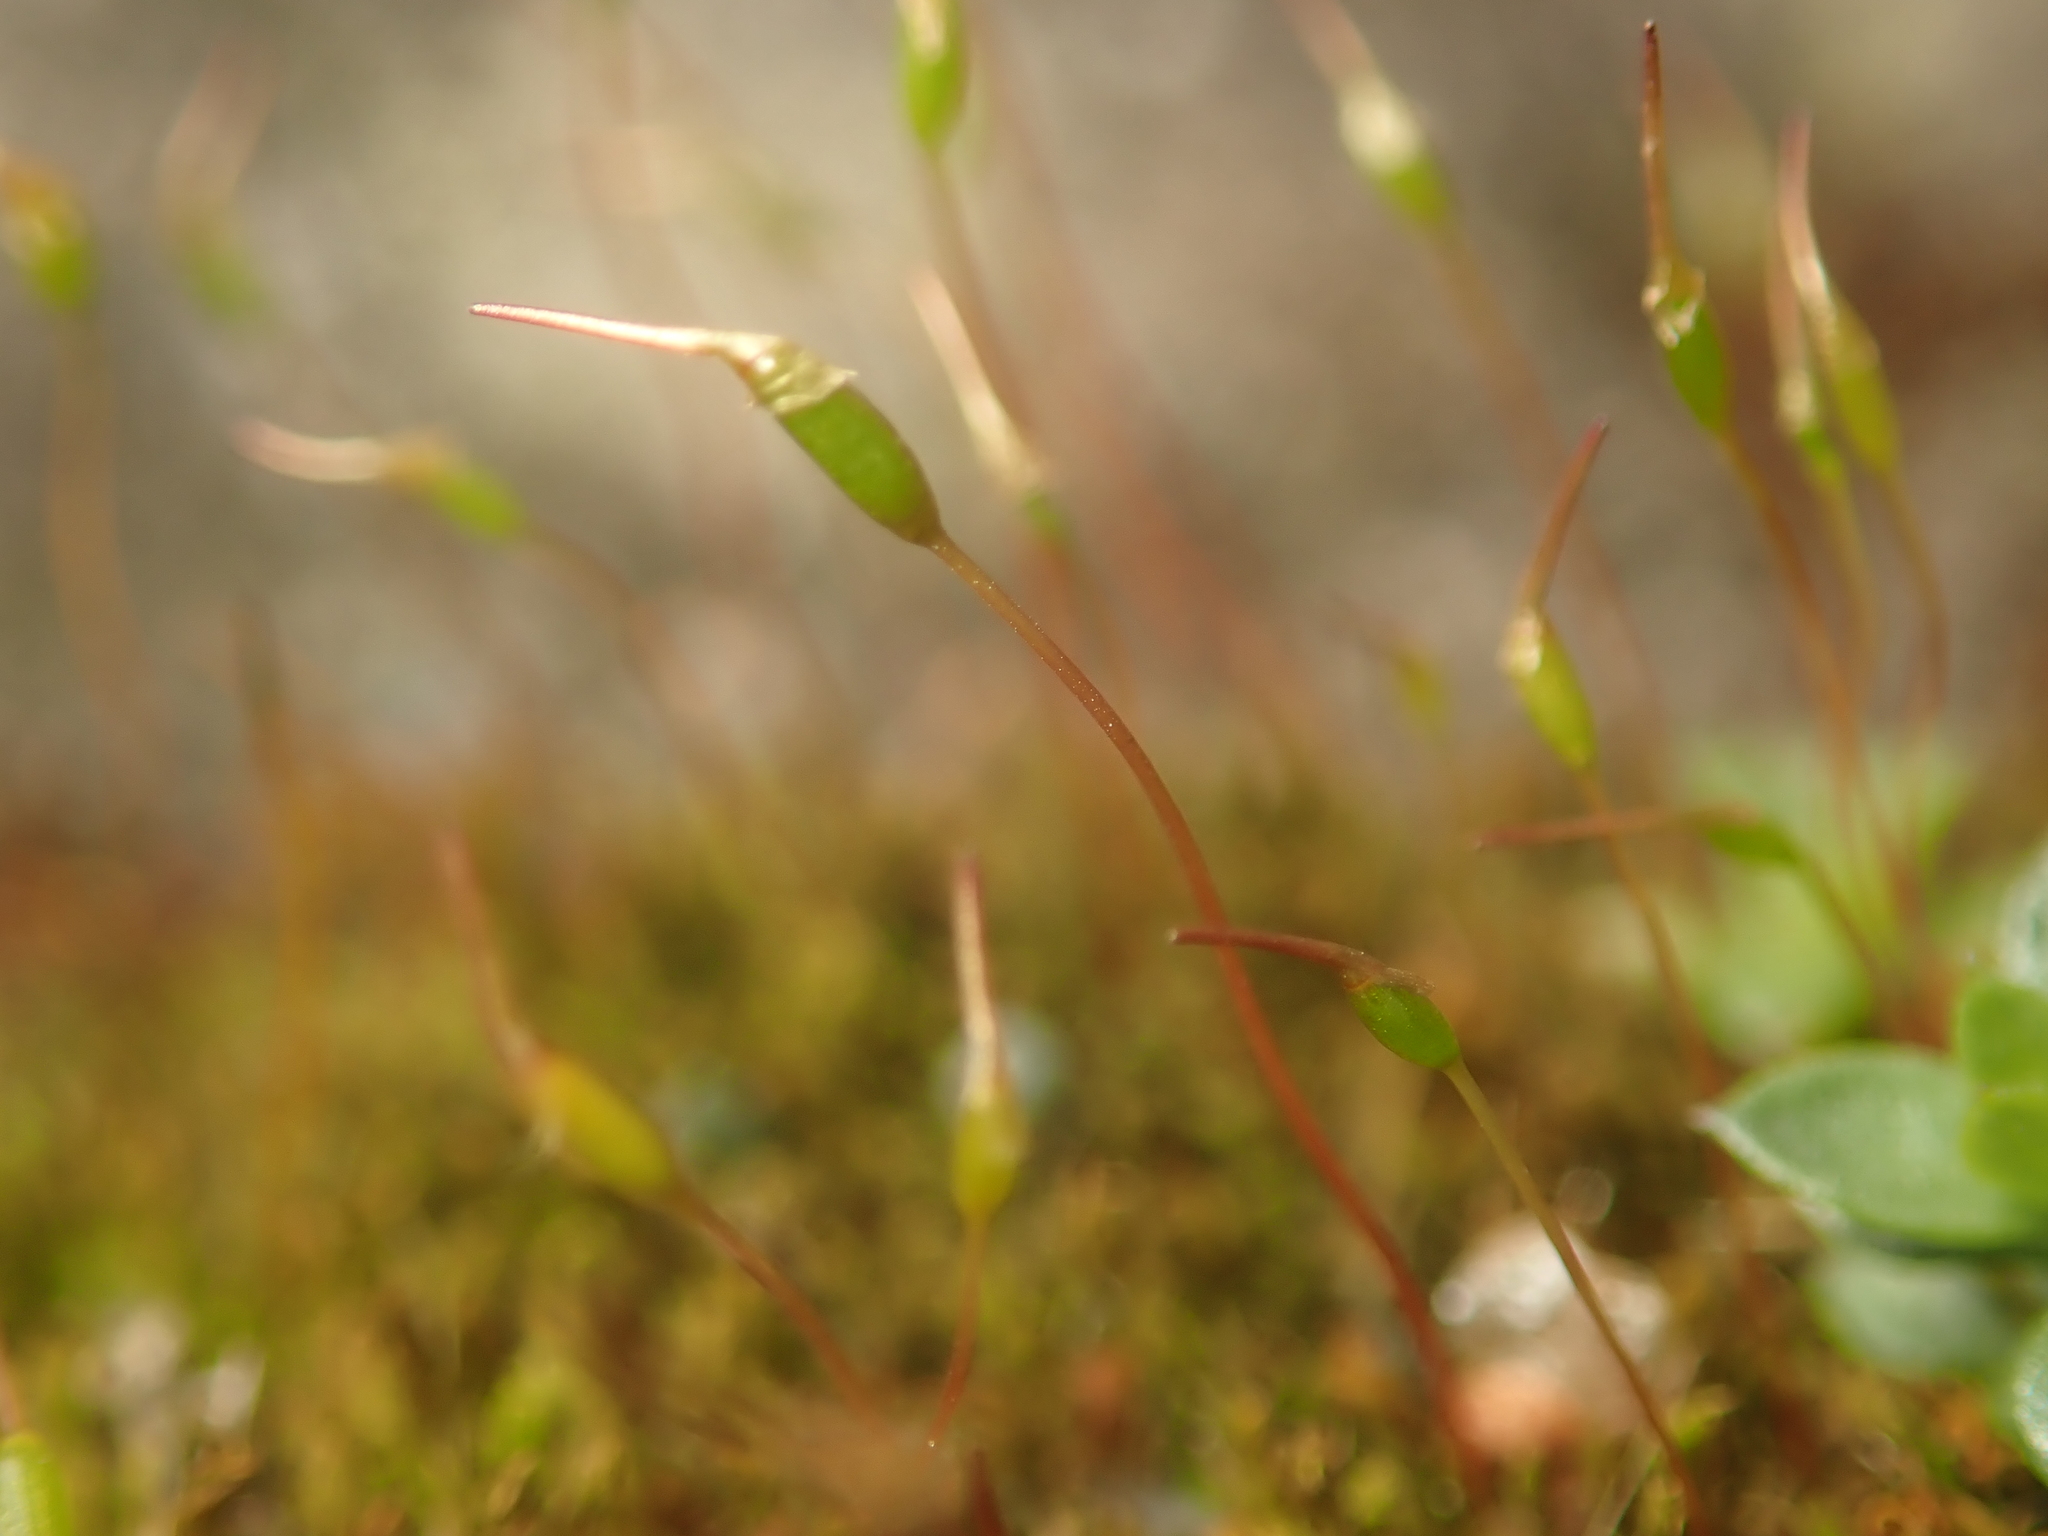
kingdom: Plantae
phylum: Bryophyta
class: Bryopsida
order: Dicranales
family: Ditrichaceae
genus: Ceratodon
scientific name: Ceratodon purpureus
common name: Redshank
